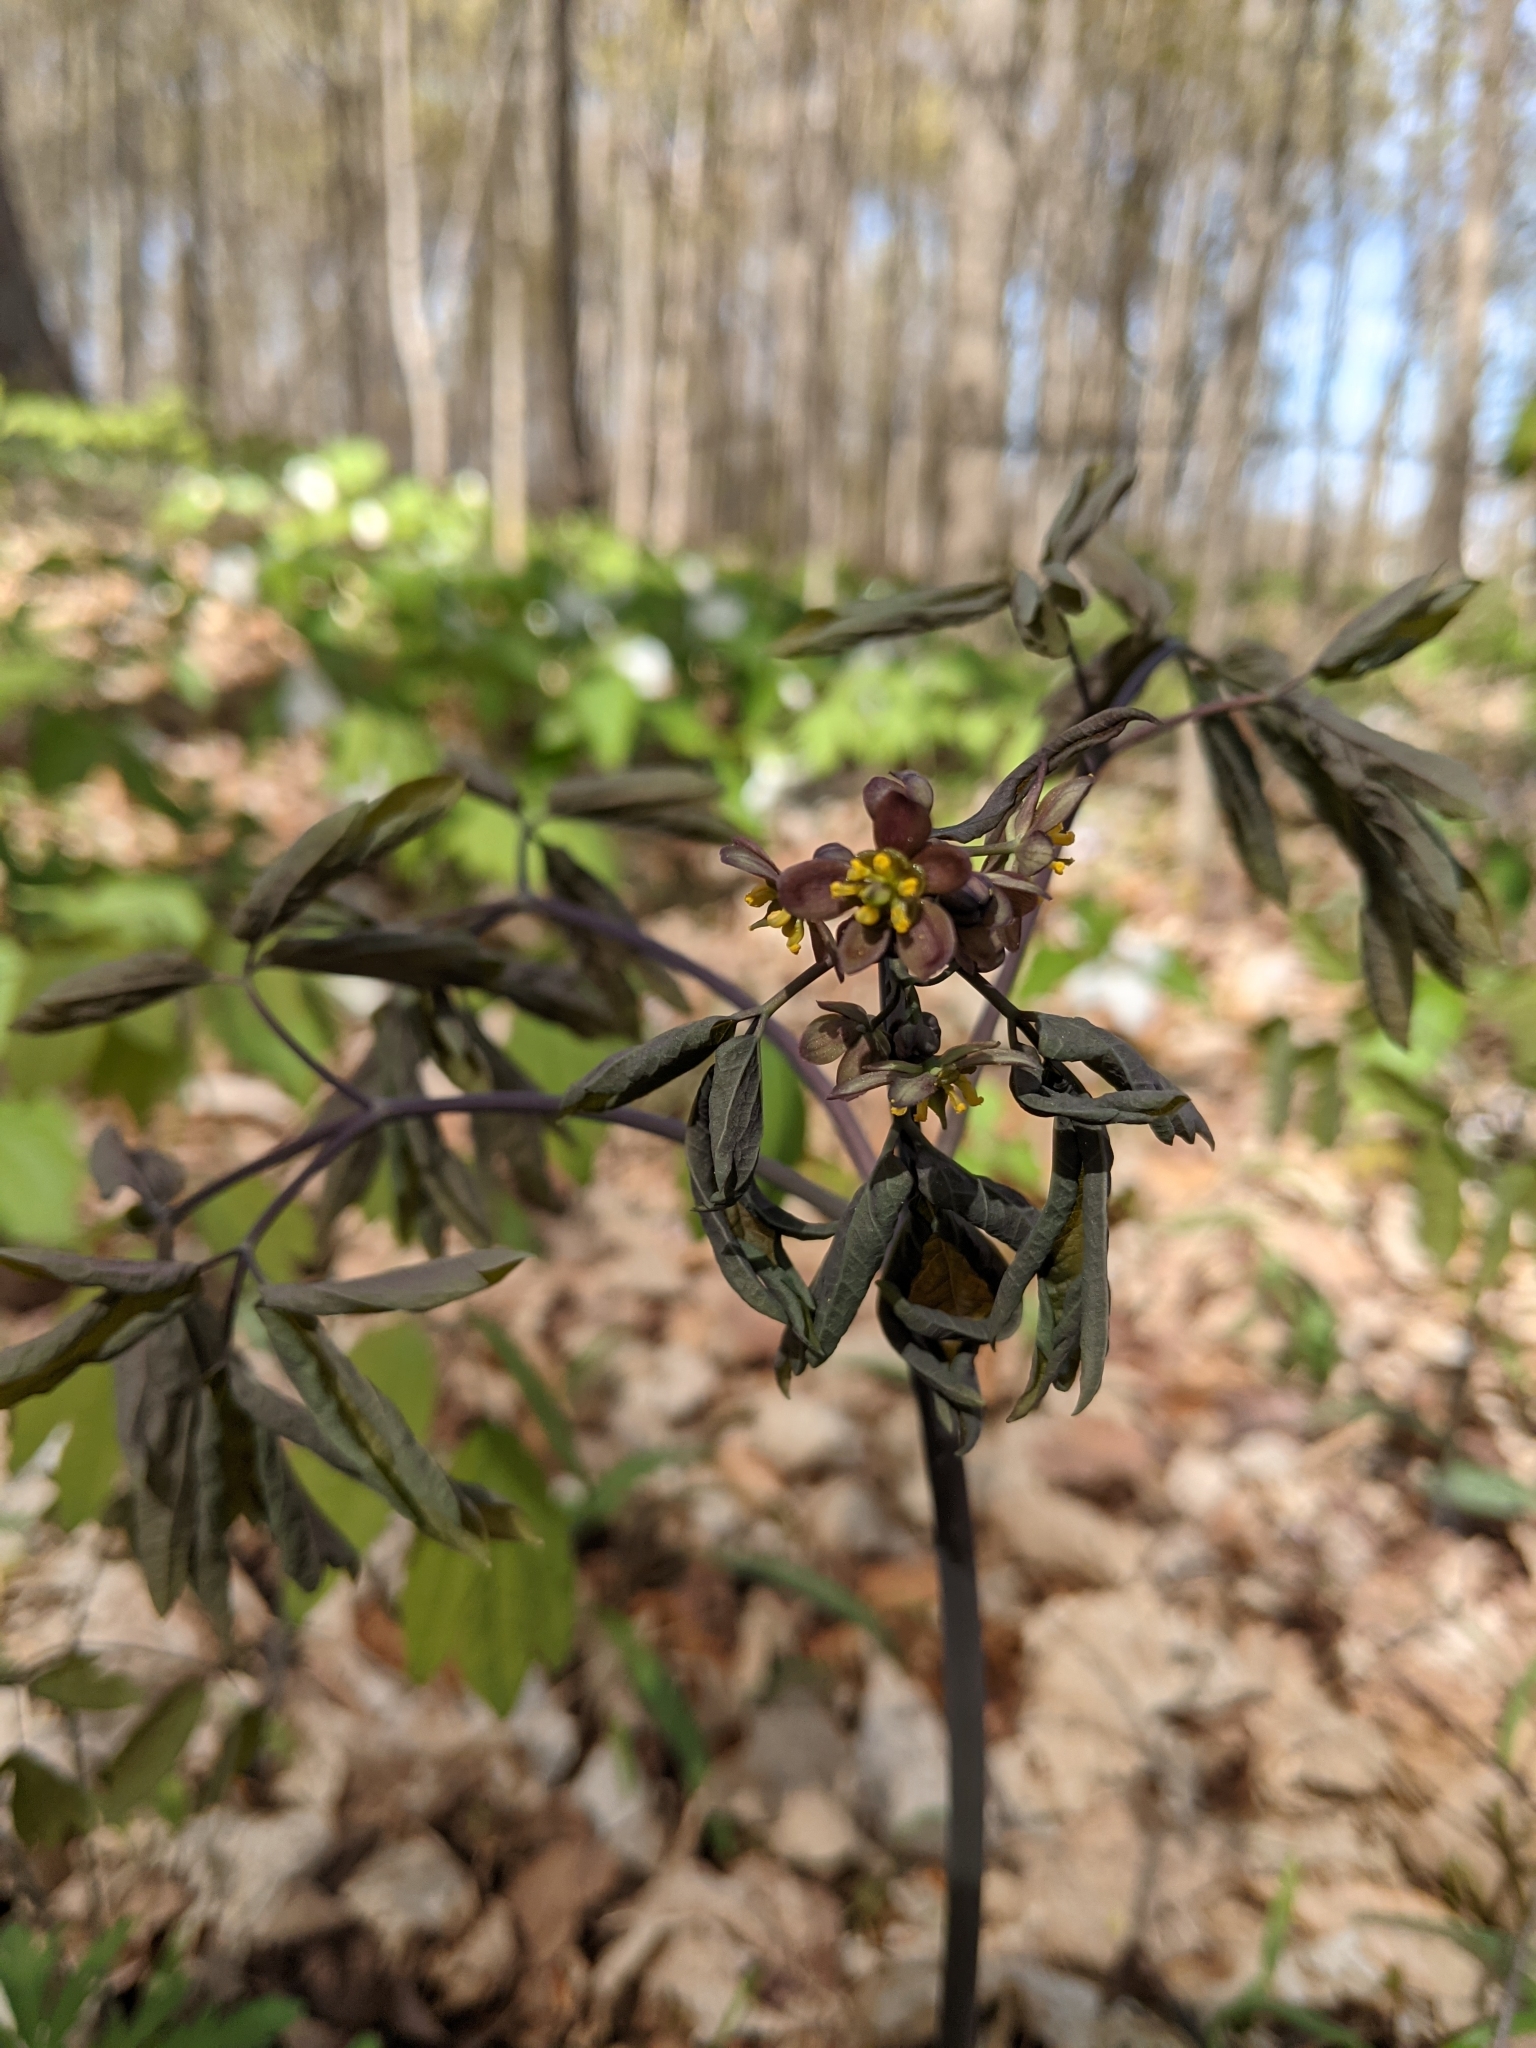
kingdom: Plantae
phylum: Tracheophyta
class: Magnoliopsida
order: Ranunculales
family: Berberidaceae
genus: Caulophyllum
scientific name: Caulophyllum giganteum
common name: Blue cohosh
